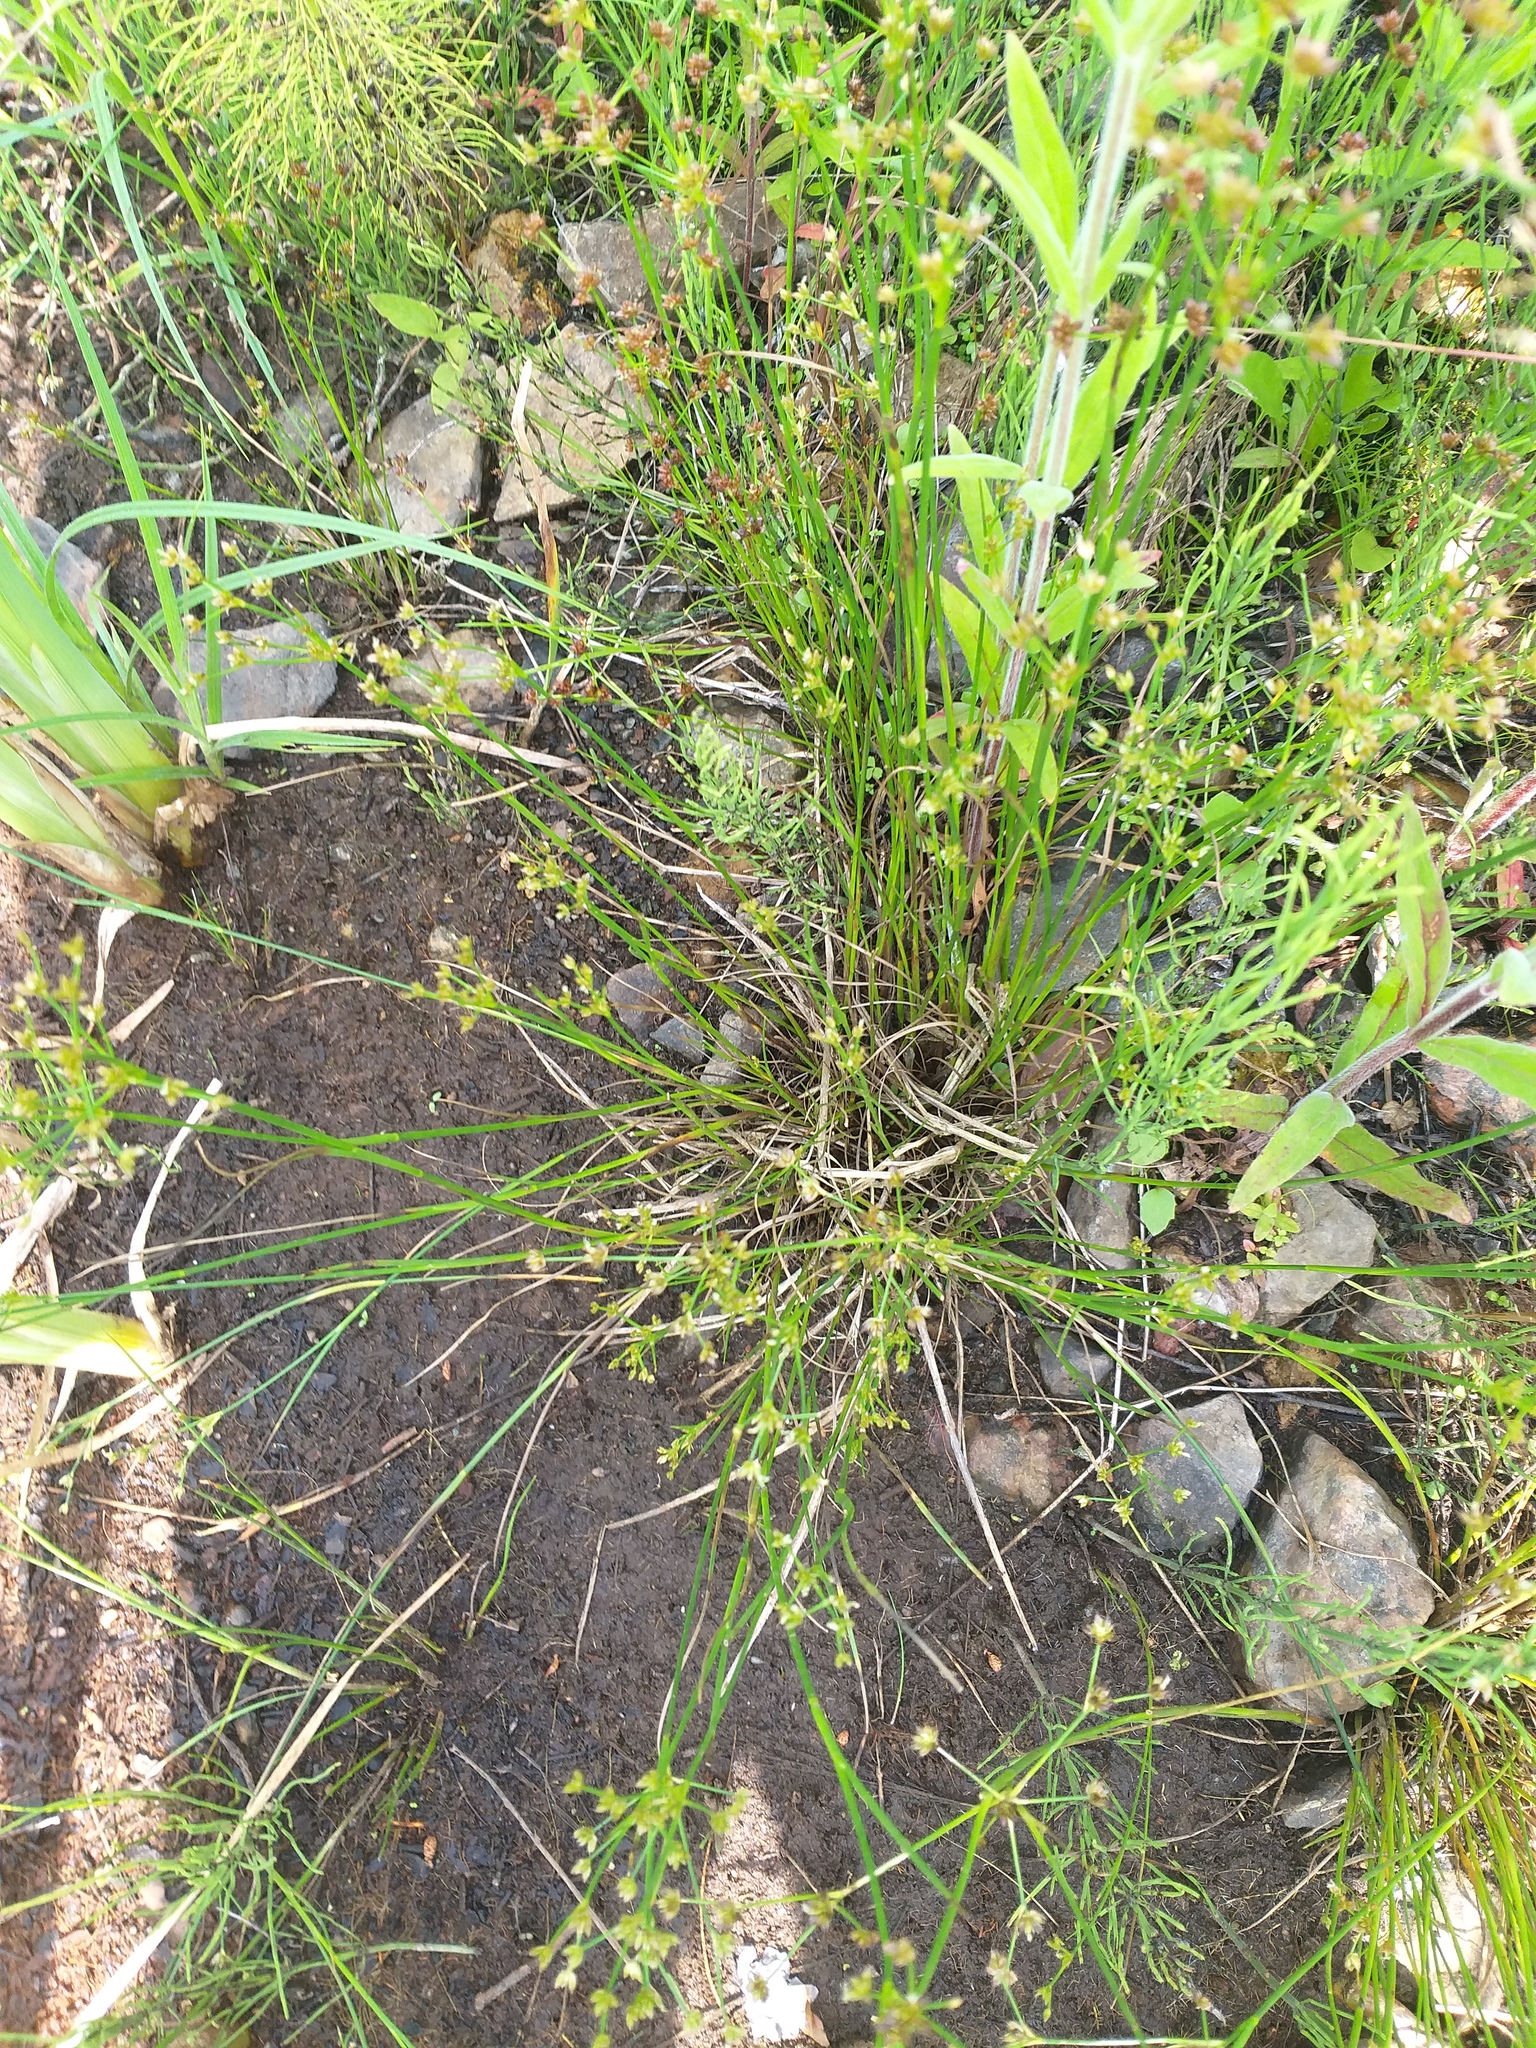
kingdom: Plantae
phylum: Tracheophyta
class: Liliopsida
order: Poales
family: Juncaceae
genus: Juncus
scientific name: Juncus articulatus
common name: Jointed rush
